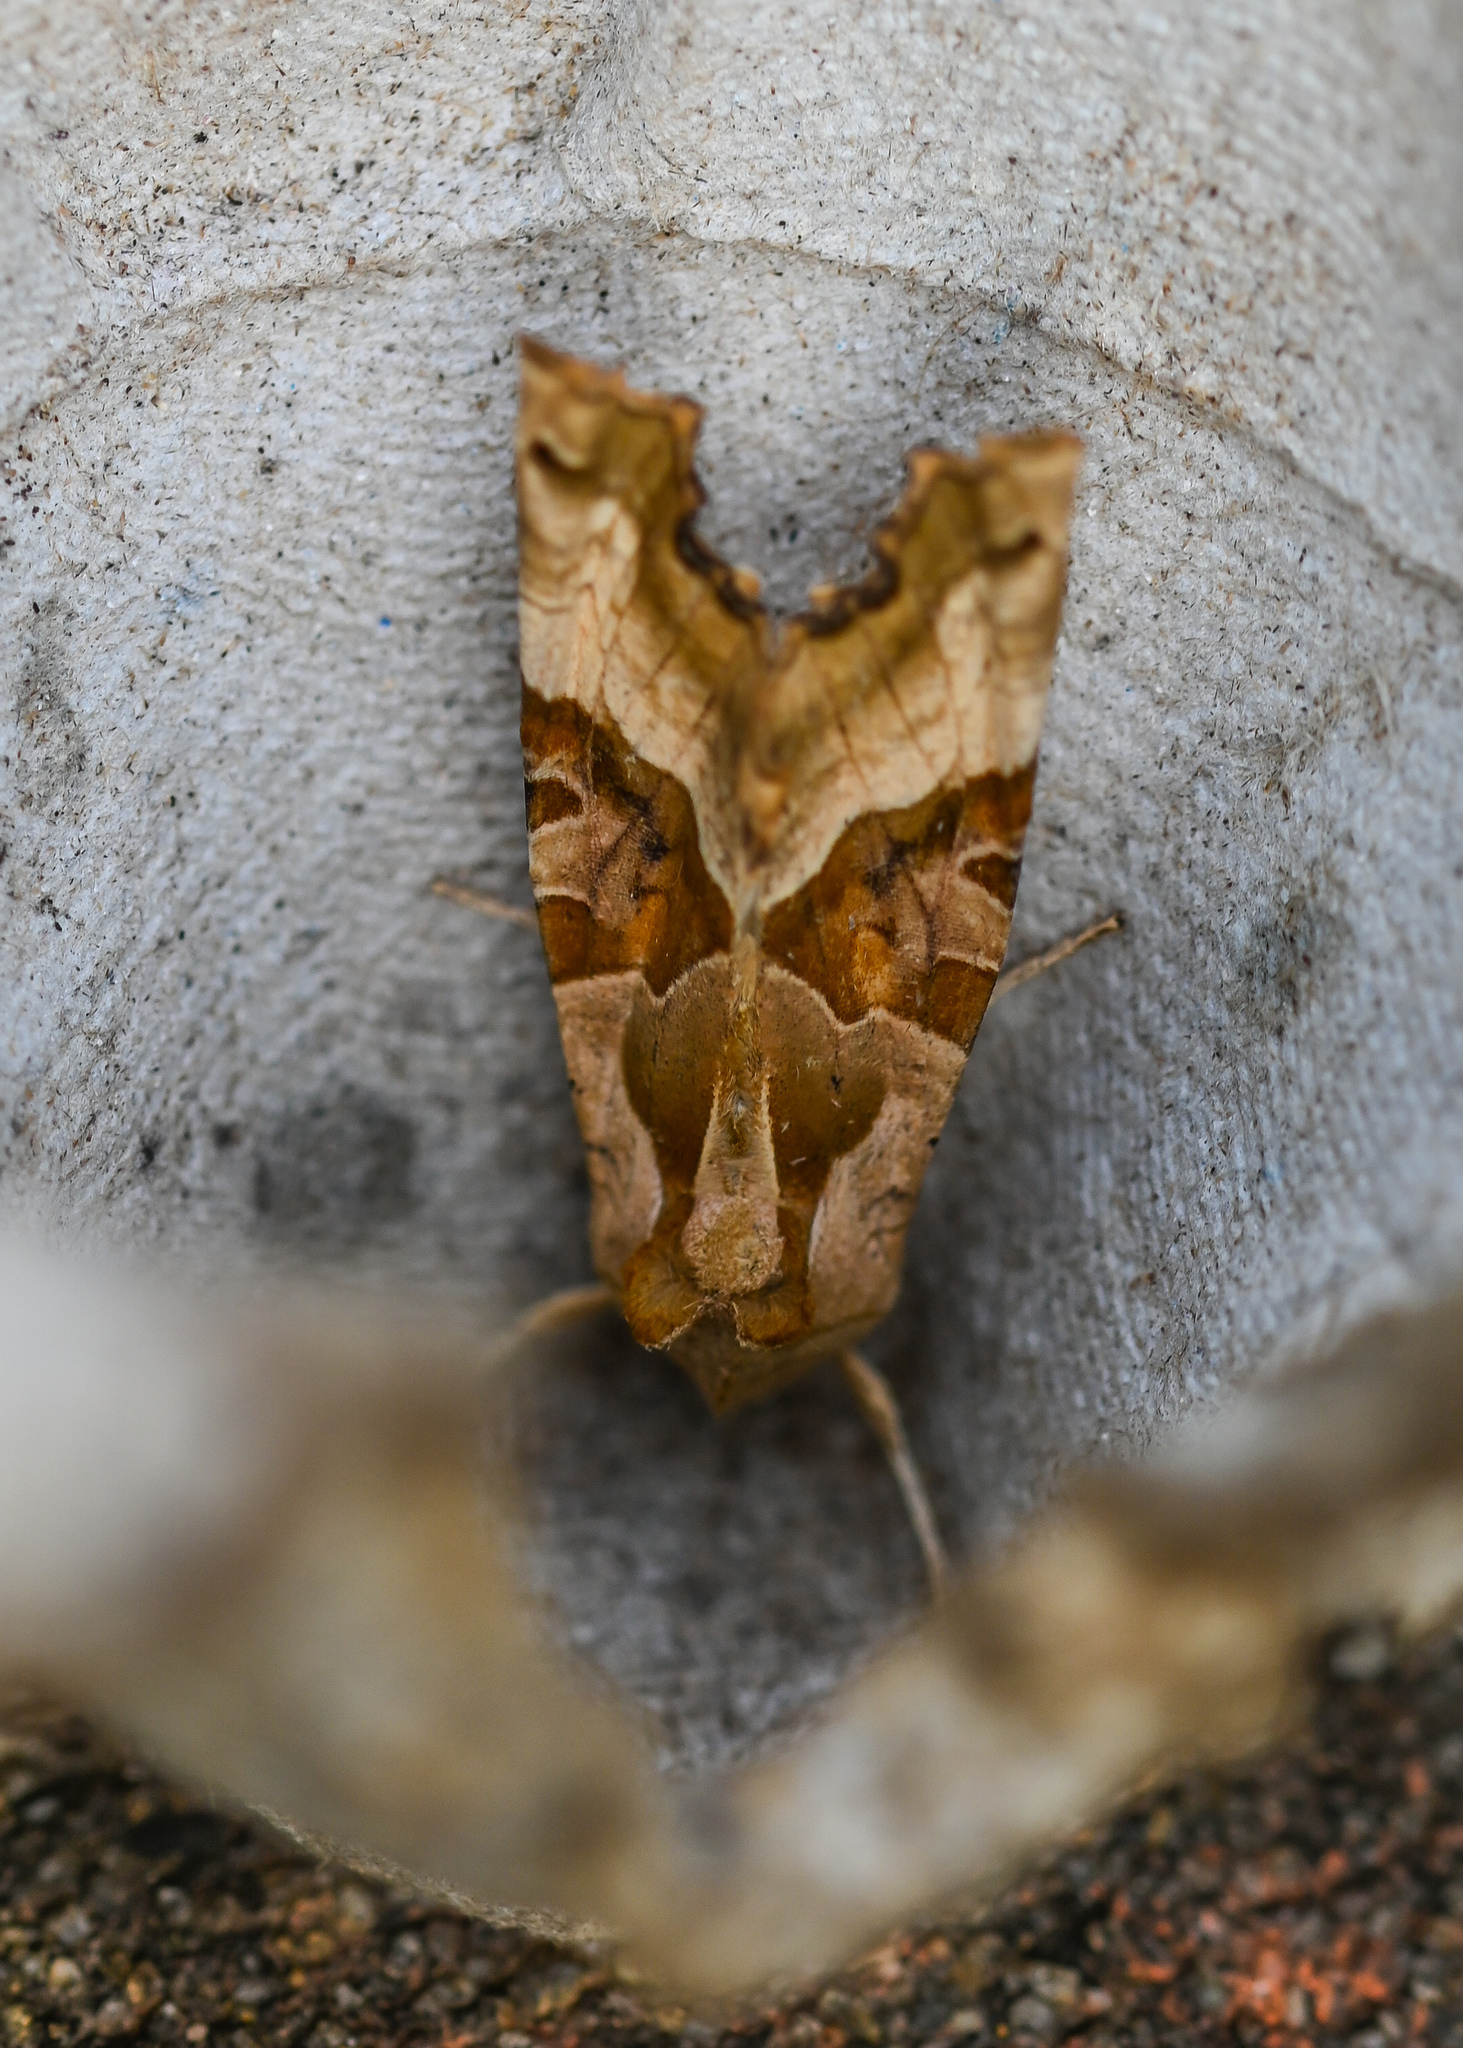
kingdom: Animalia
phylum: Arthropoda
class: Insecta
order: Lepidoptera
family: Noctuidae
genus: Phlogophora
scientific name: Phlogophora meticulosa
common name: Angle shades
